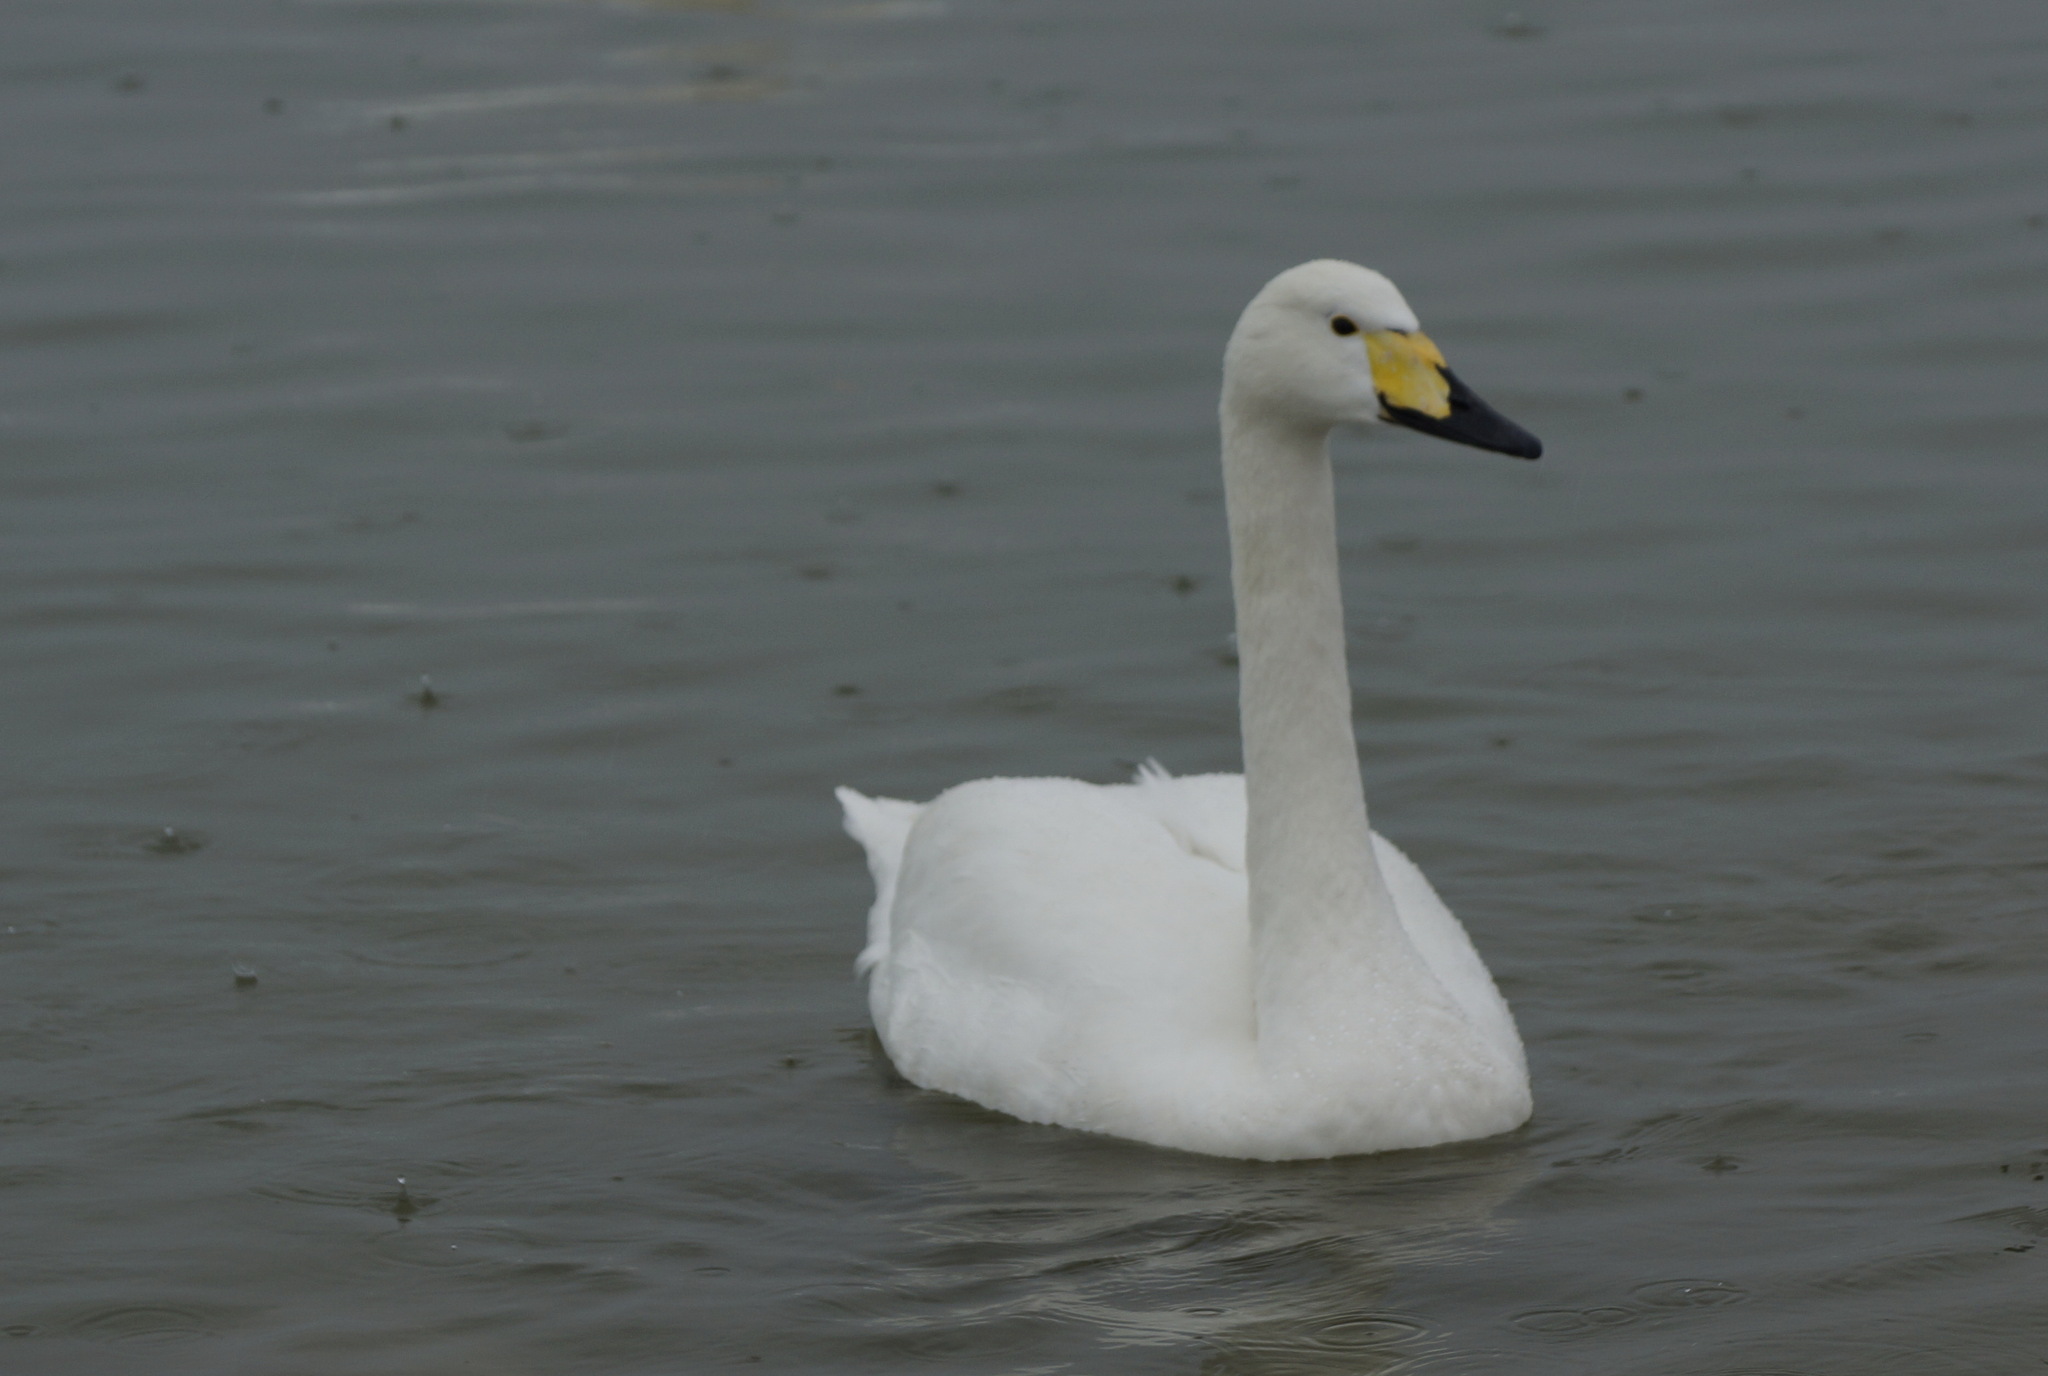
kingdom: Animalia
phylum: Chordata
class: Aves
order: Anseriformes
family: Anatidae
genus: Cygnus
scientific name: Cygnus columbianus
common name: Tundra swan
